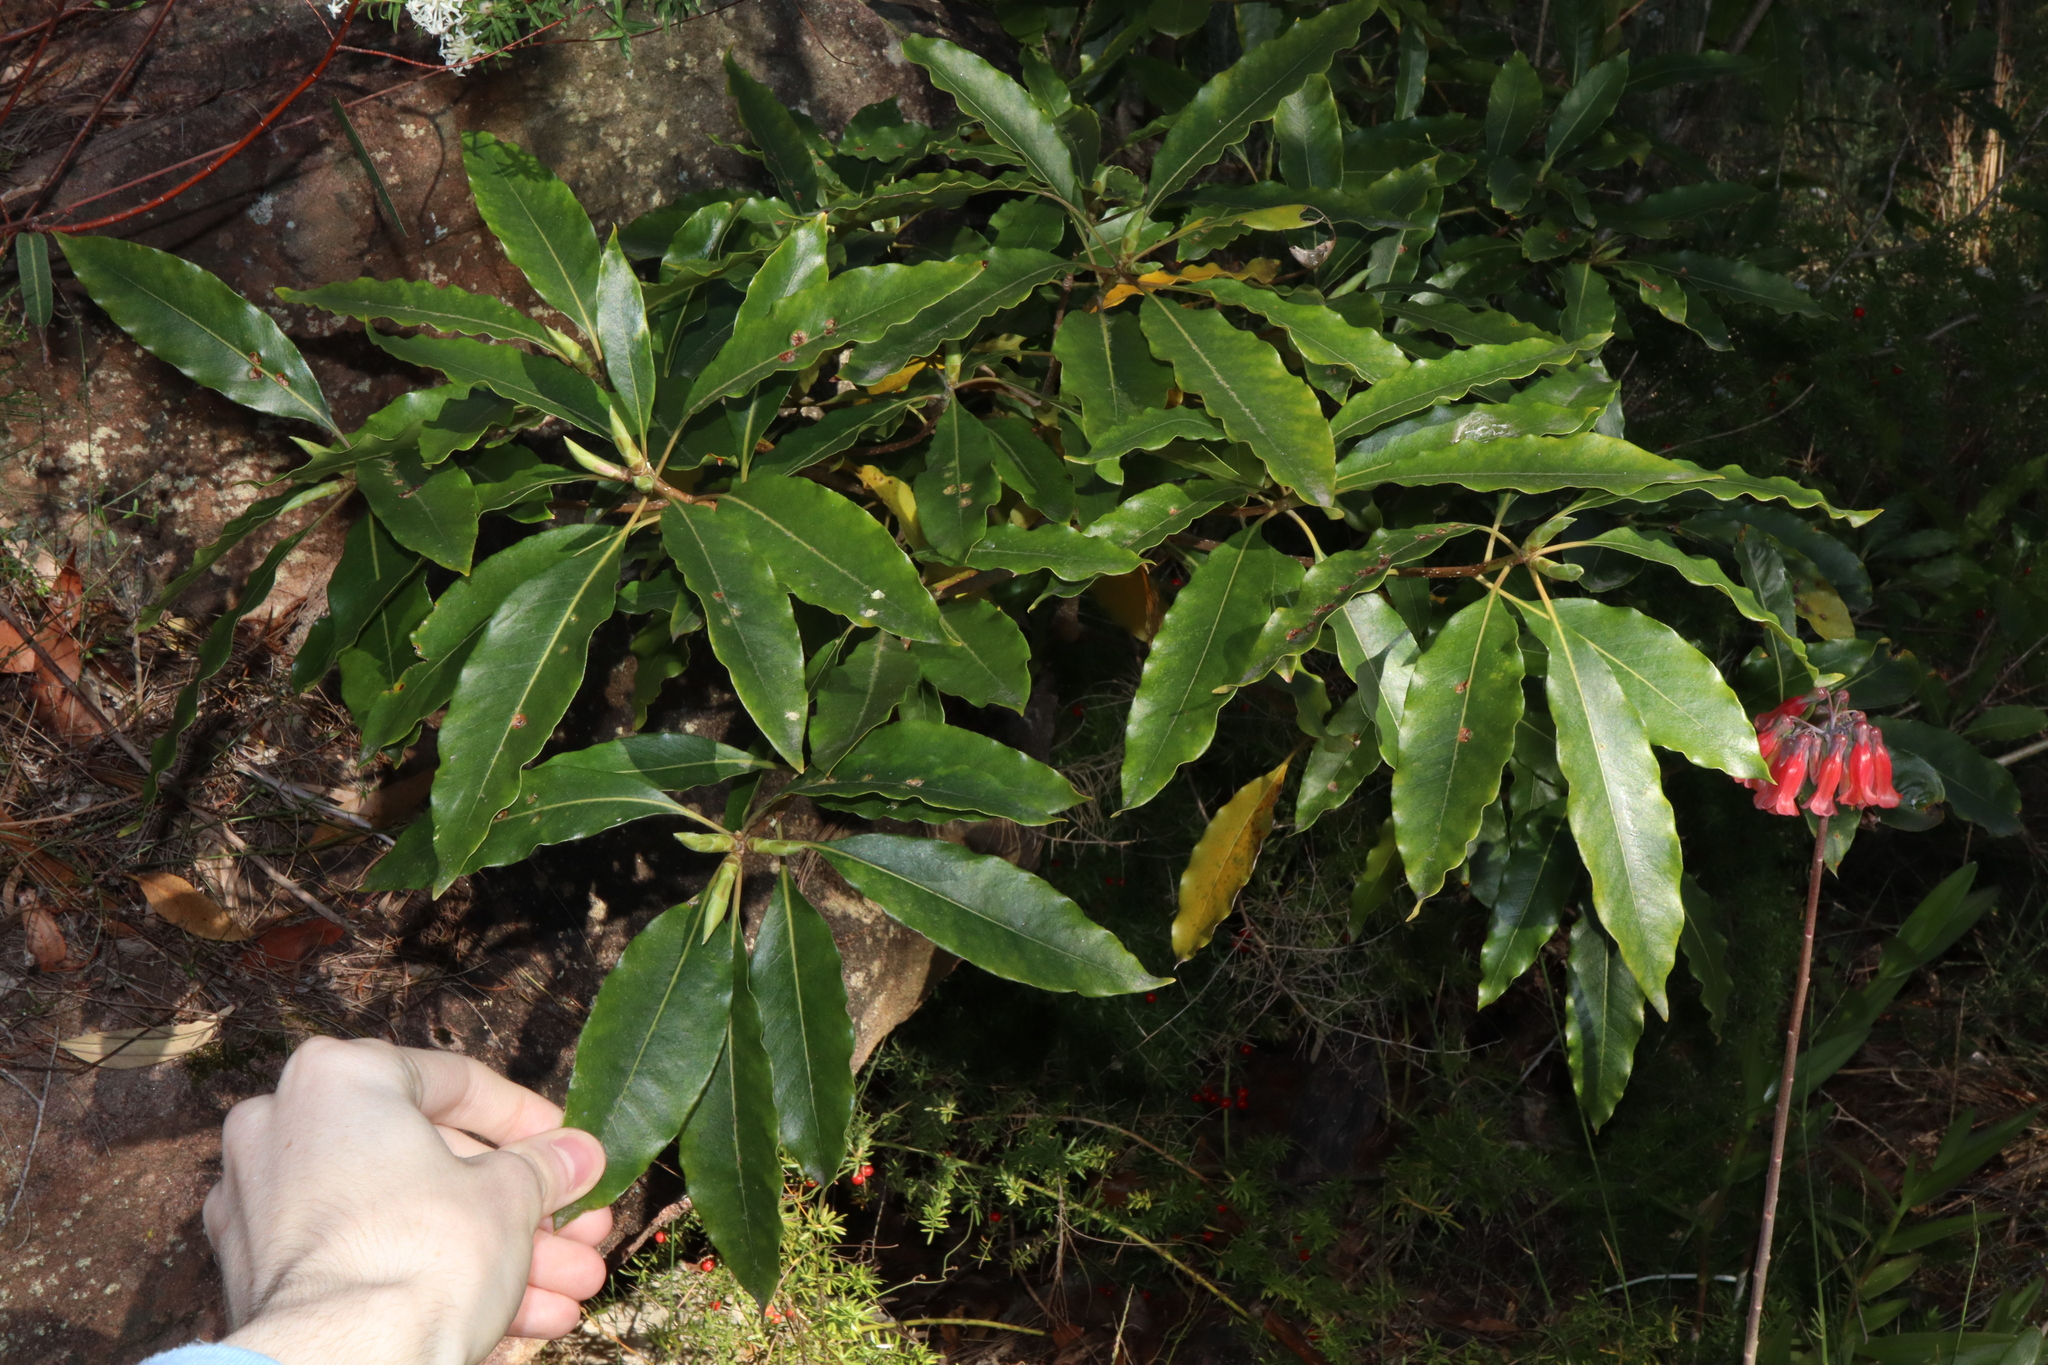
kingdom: Plantae
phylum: Tracheophyta
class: Magnoliopsida
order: Apiales
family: Pittosporaceae
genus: Pittosporum
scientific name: Pittosporum undulatum
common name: Australian cheesewood
